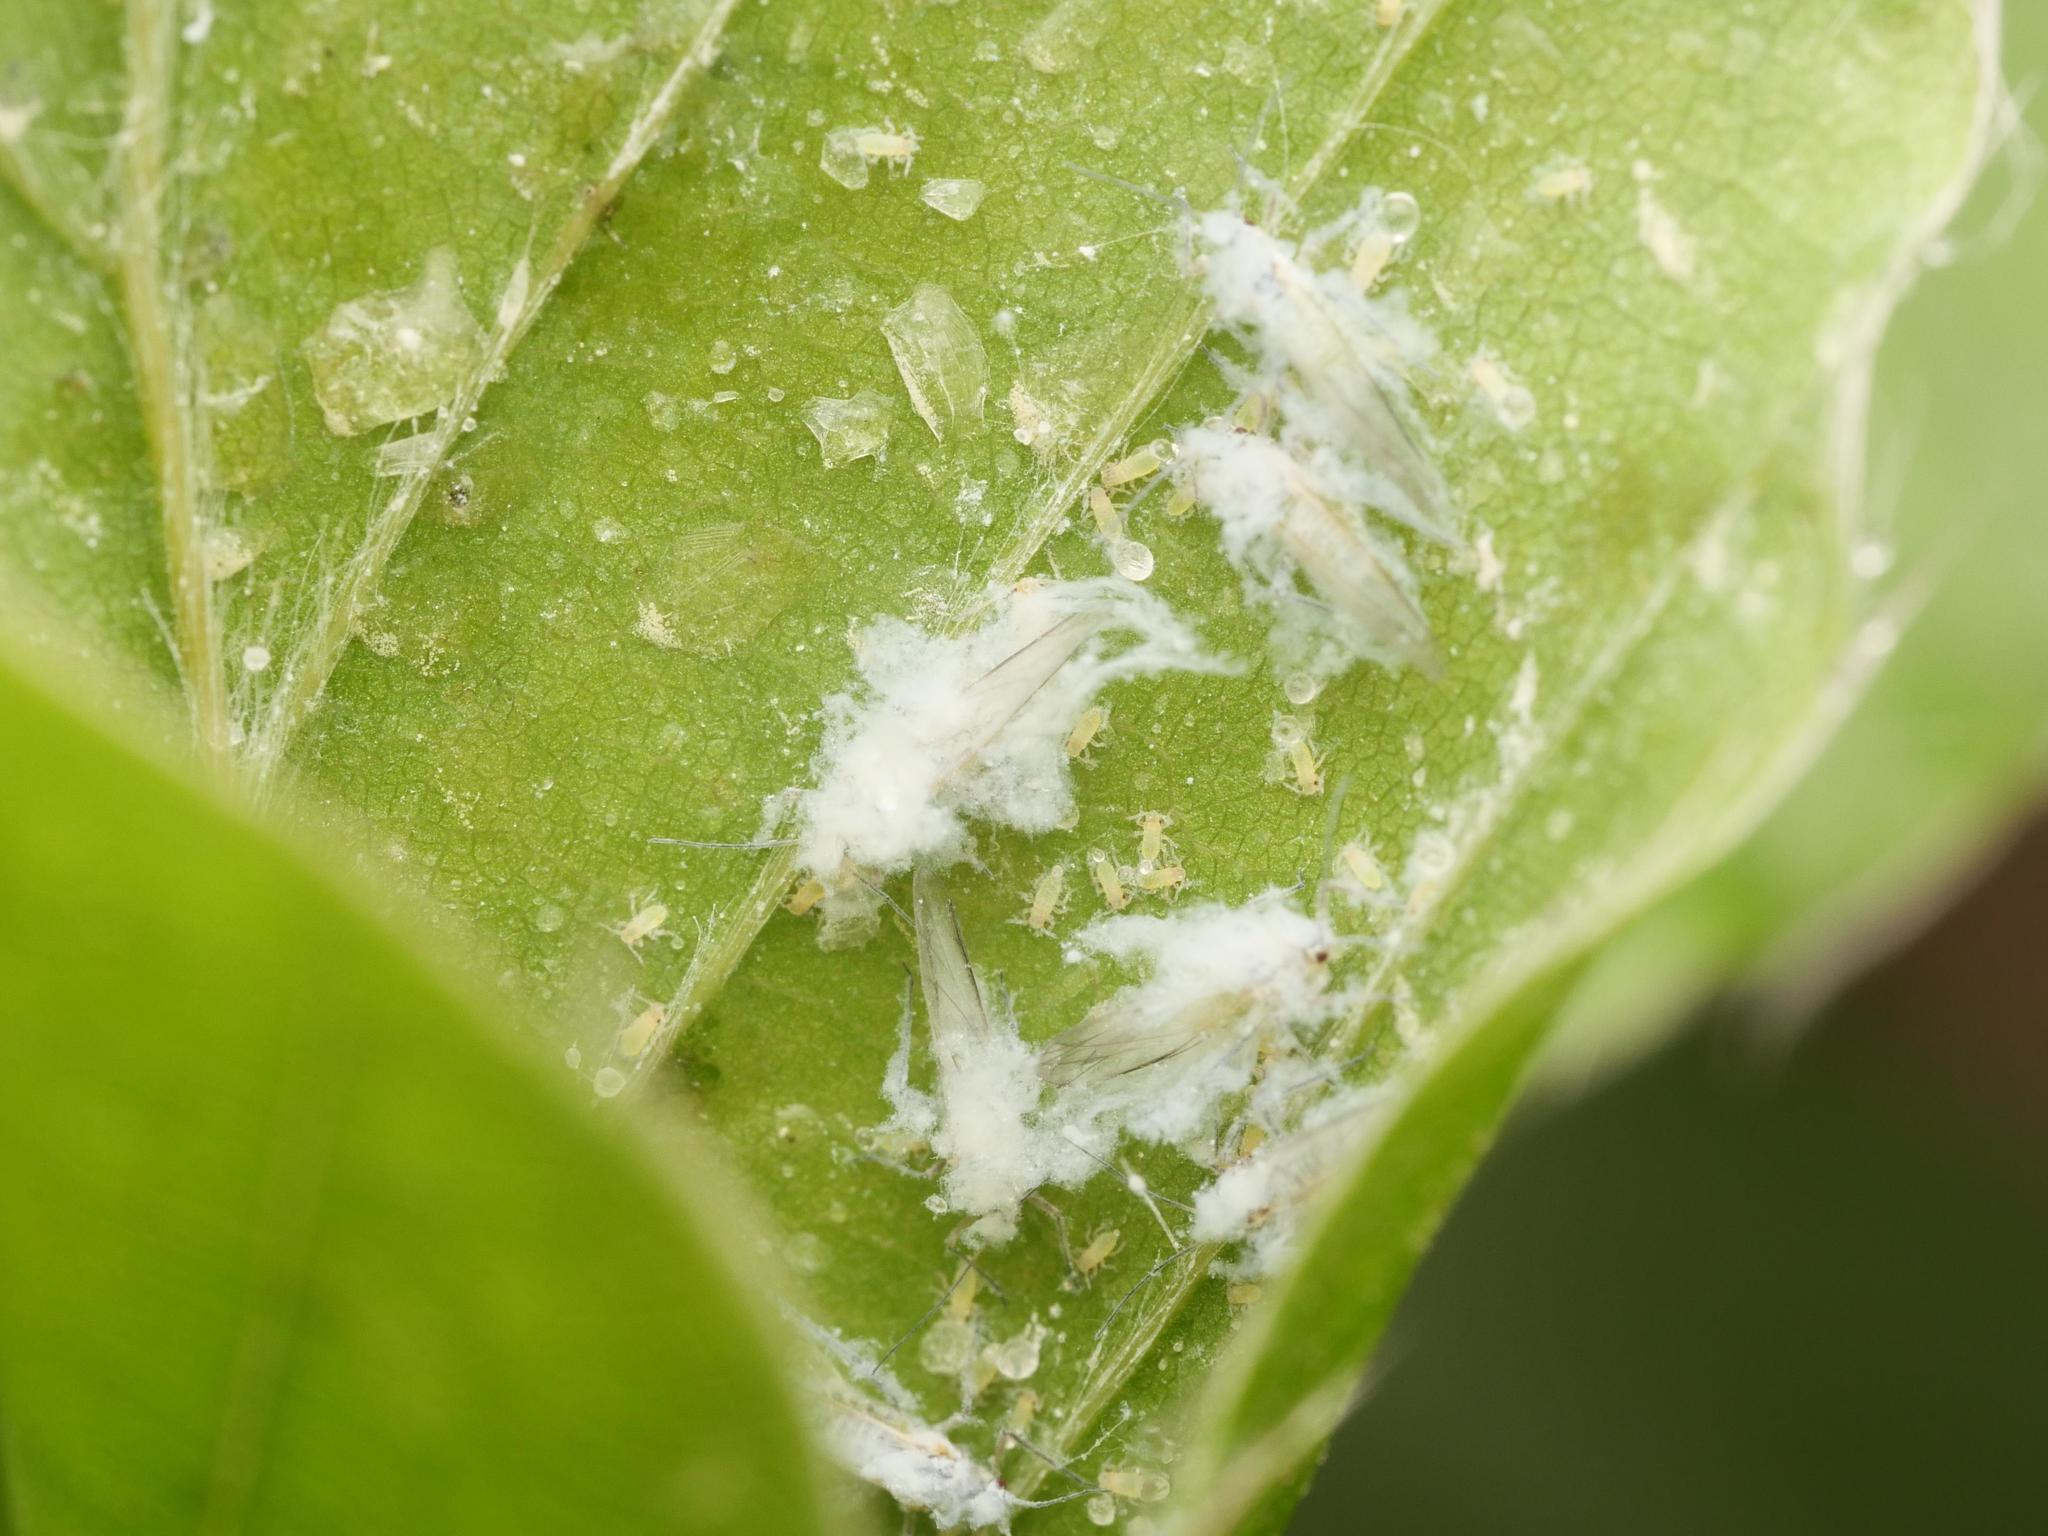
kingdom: Animalia
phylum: Arthropoda
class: Insecta
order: Hemiptera
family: Aphididae
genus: Phyllaphis
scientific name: Phyllaphis fagi
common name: Beech aphid
